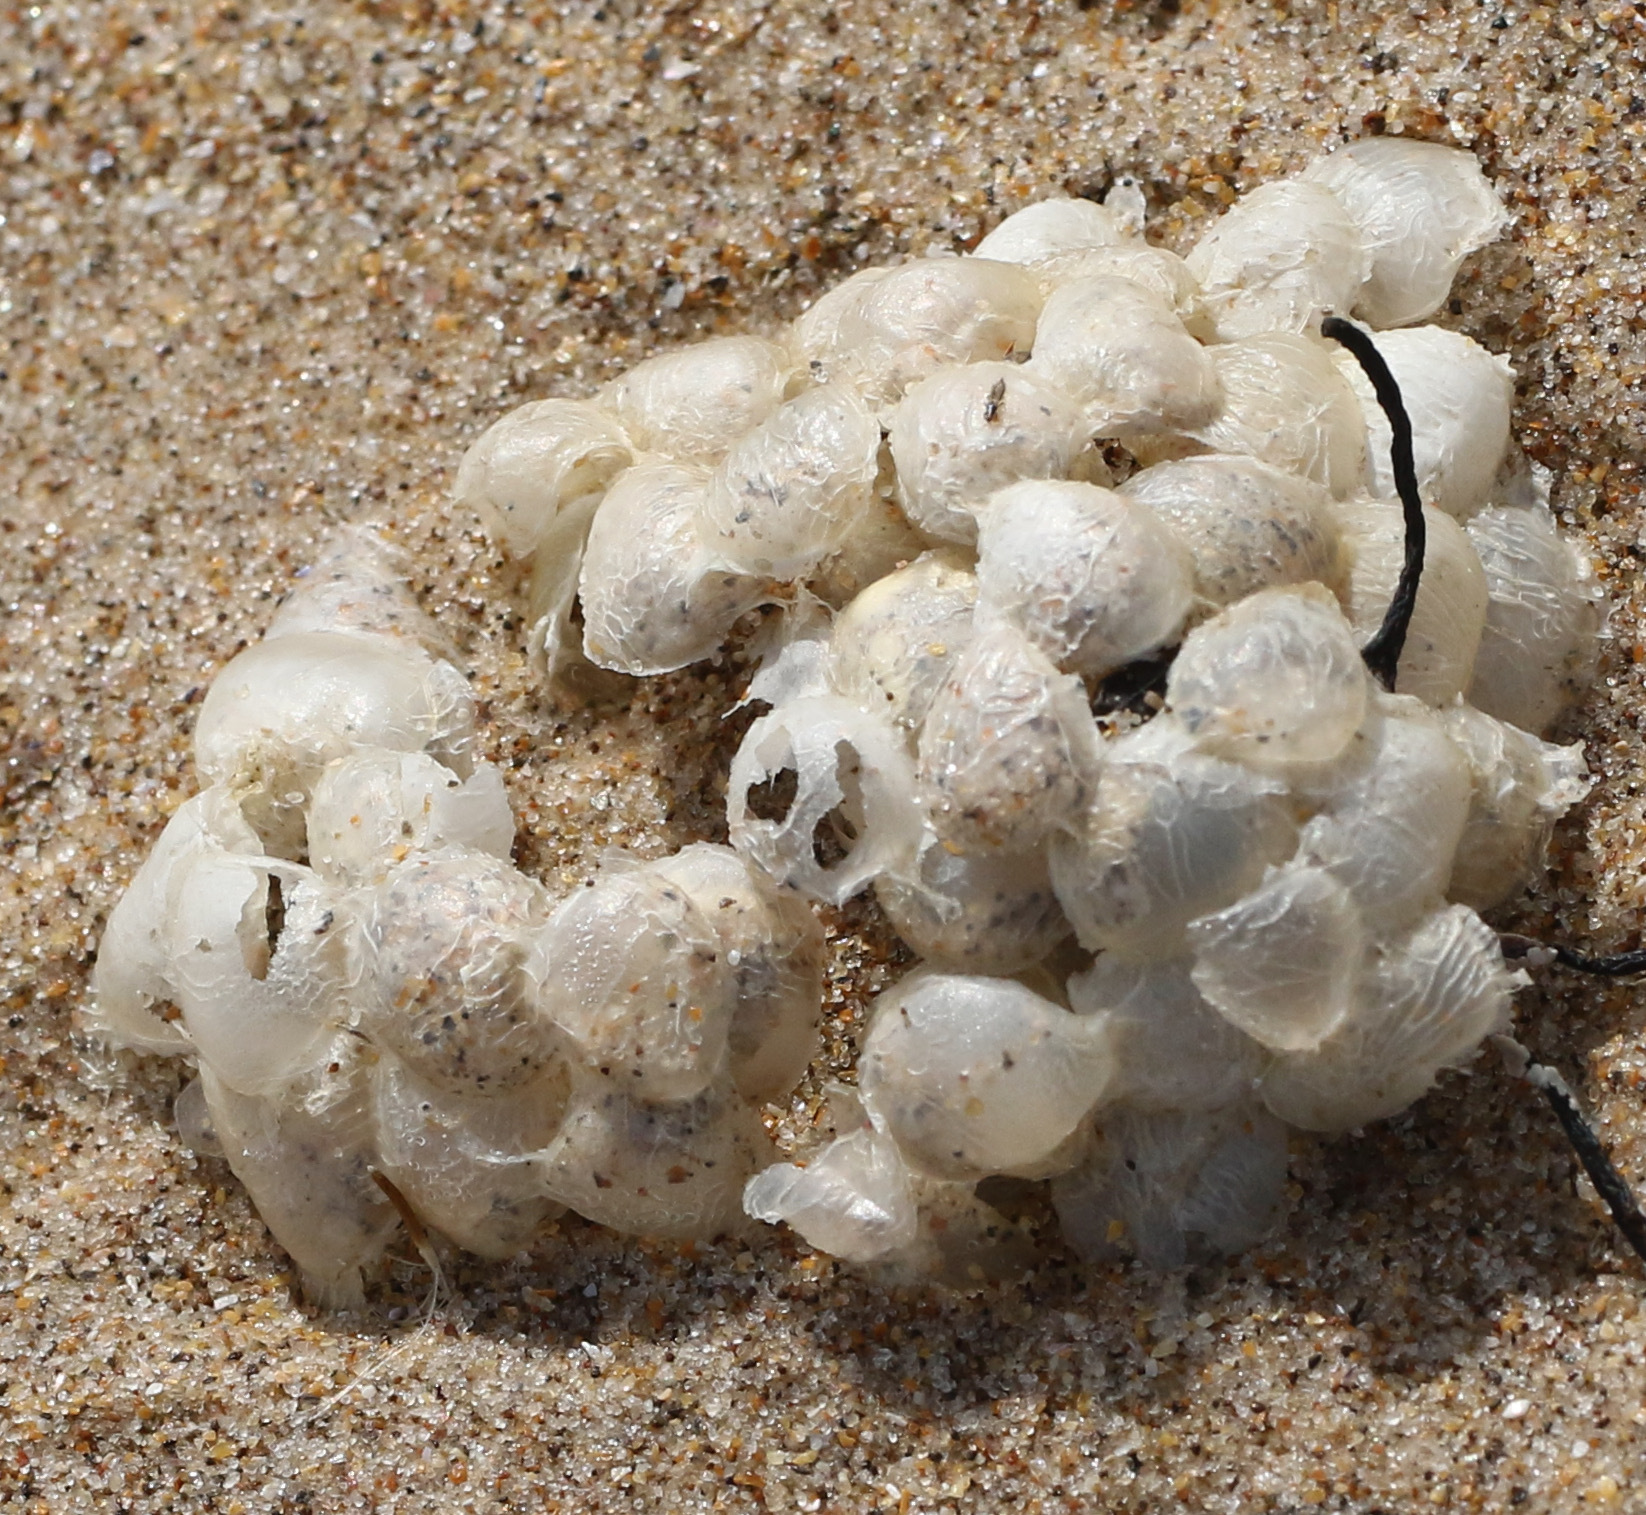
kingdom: Animalia
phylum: Mollusca
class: Gastropoda
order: Neogastropoda
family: Buccinidae
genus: Buccinum
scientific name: Buccinum undatum
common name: Common whelk
